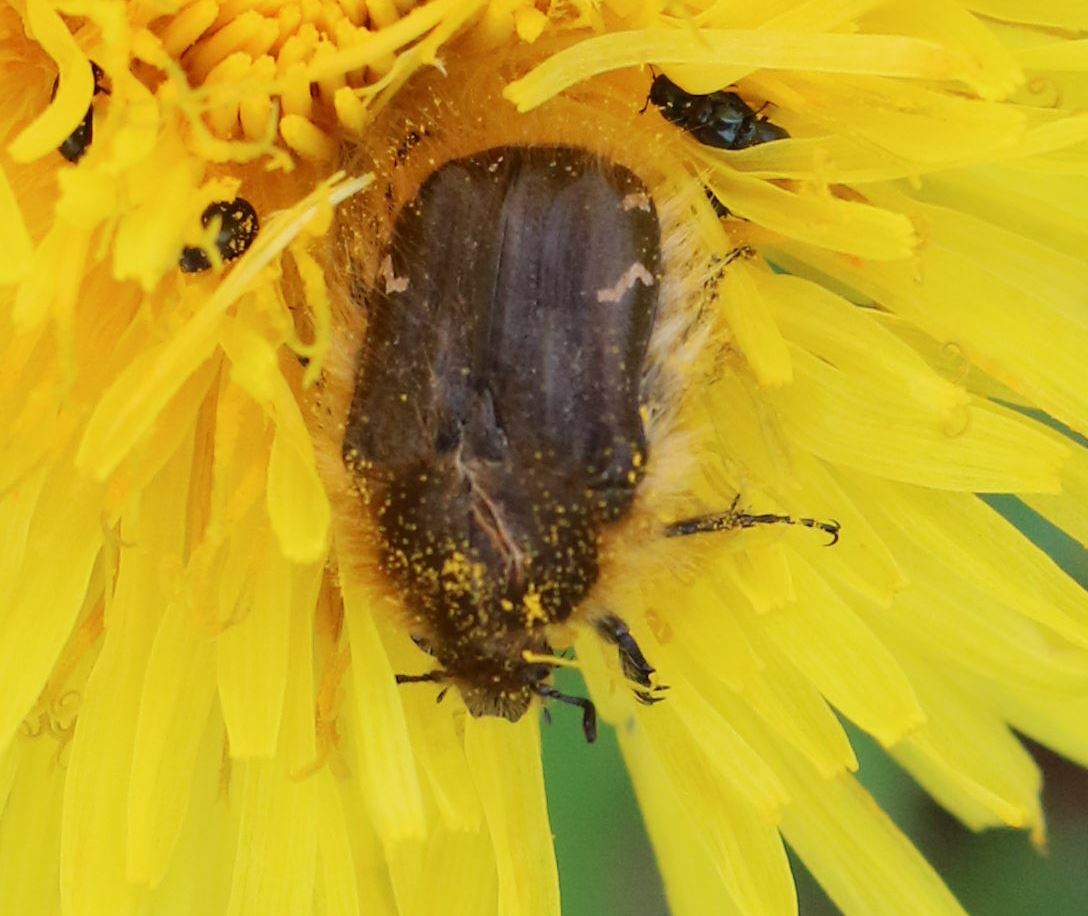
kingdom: Animalia
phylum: Arthropoda
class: Insecta
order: Coleoptera
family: Scarabaeidae
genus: Tropinota
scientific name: Tropinota hirta
